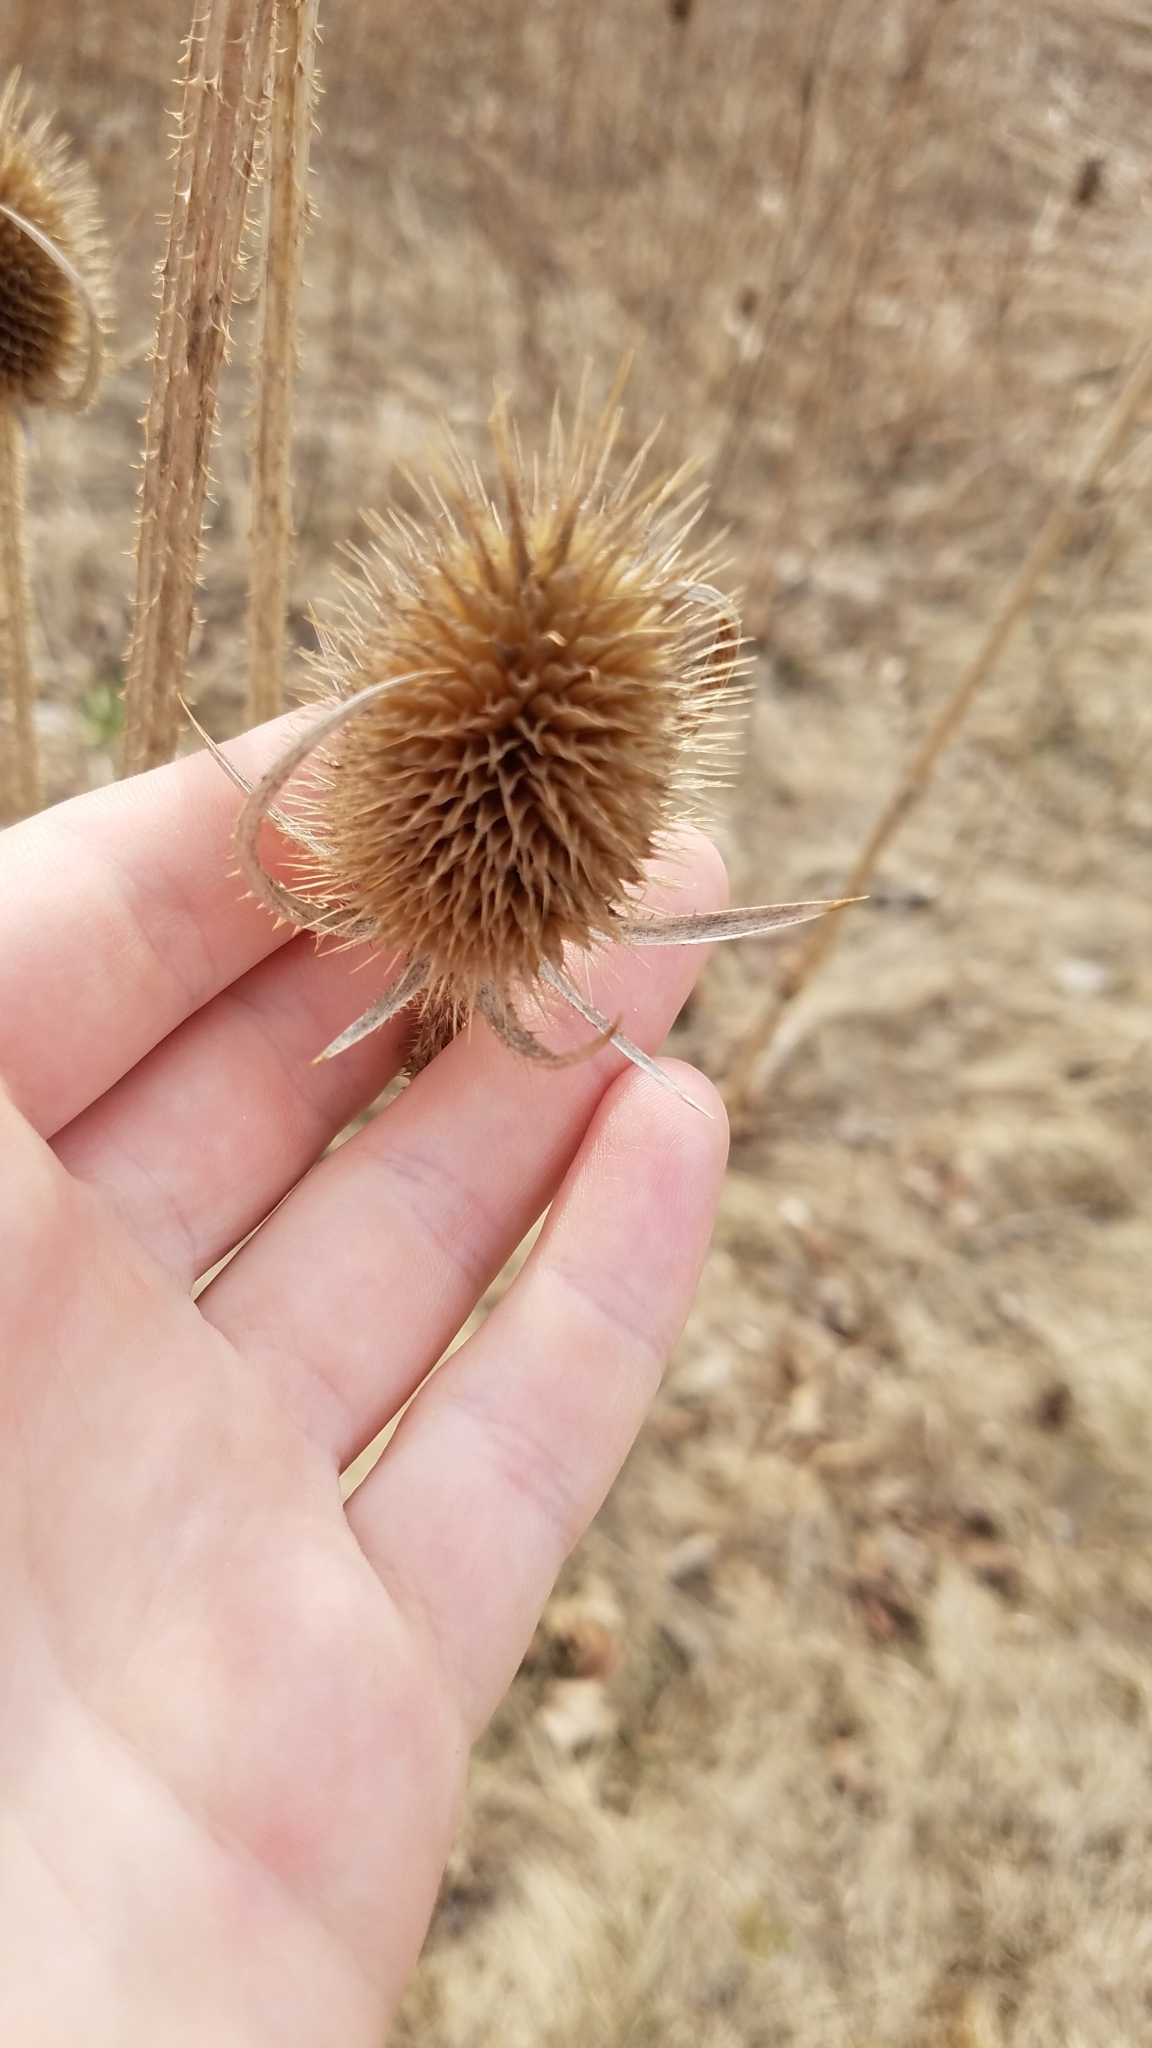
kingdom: Plantae
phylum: Tracheophyta
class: Magnoliopsida
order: Dipsacales
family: Caprifoliaceae
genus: Dipsacus
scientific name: Dipsacus laciniatus
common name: Cut-leaved teasel
